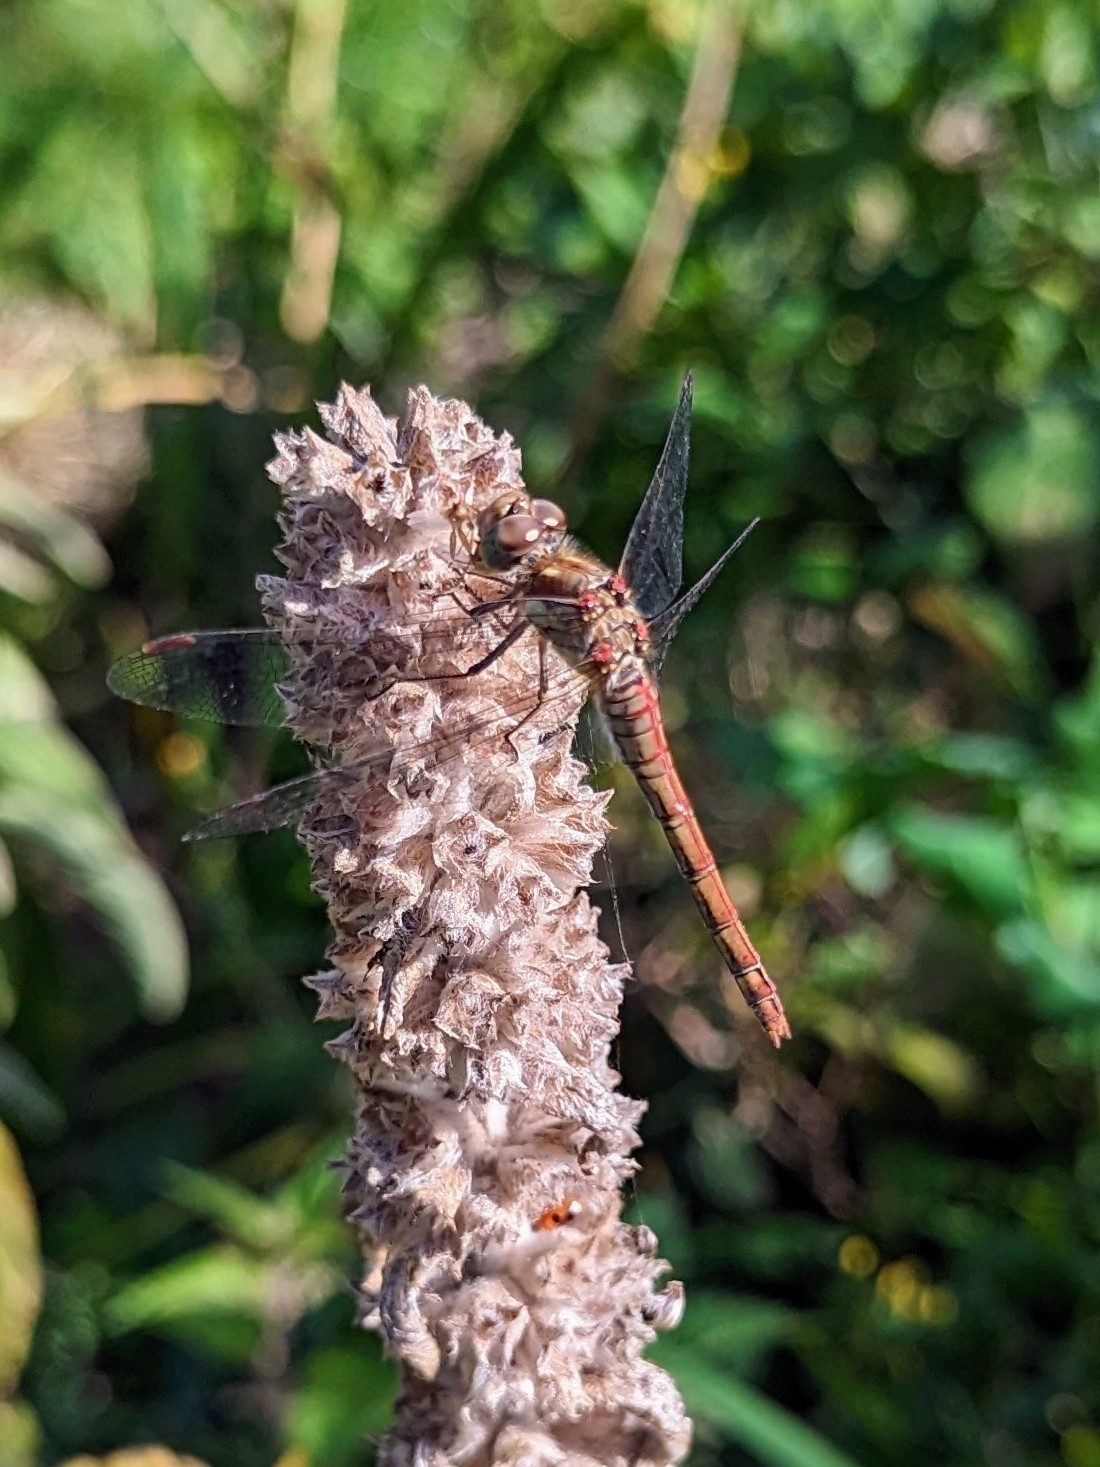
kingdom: Animalia
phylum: Arthropoda
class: Insecta
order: Odonata
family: Libellulidae
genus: Sympetrum
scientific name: Sympetrum striolatum
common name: Common darter
